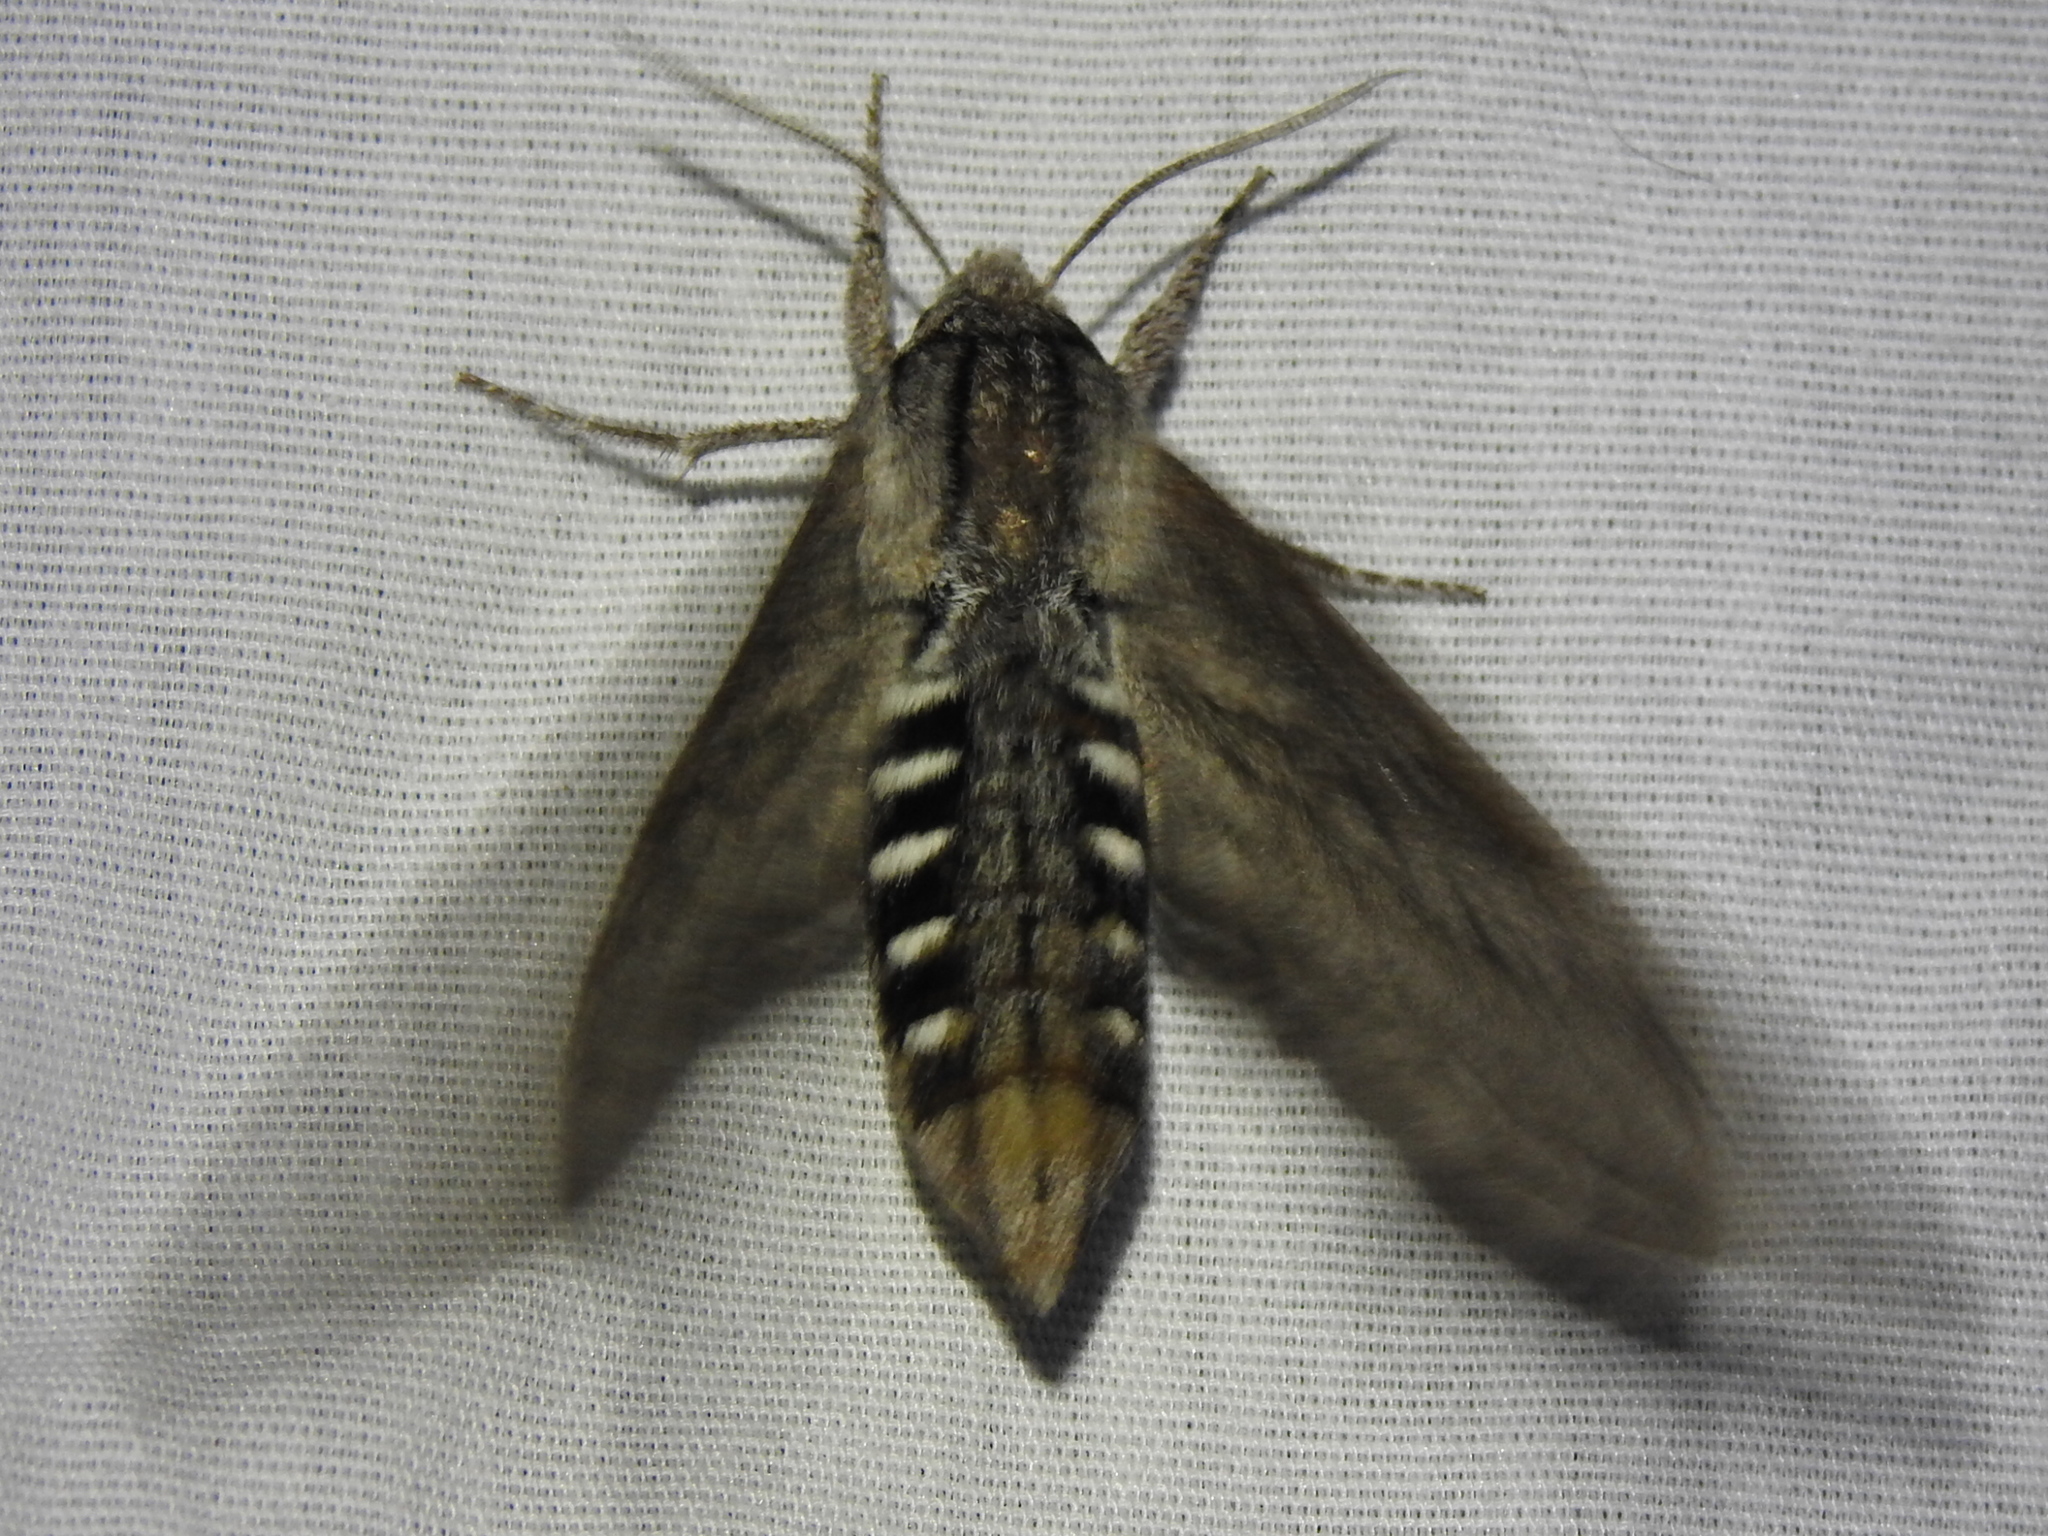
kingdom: Animalia
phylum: Arthropoda
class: Insecta
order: Lepidoptera
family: Sphingidae
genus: Sphinx
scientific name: Sphinx libocedrus
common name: Incense cedar sphinx
